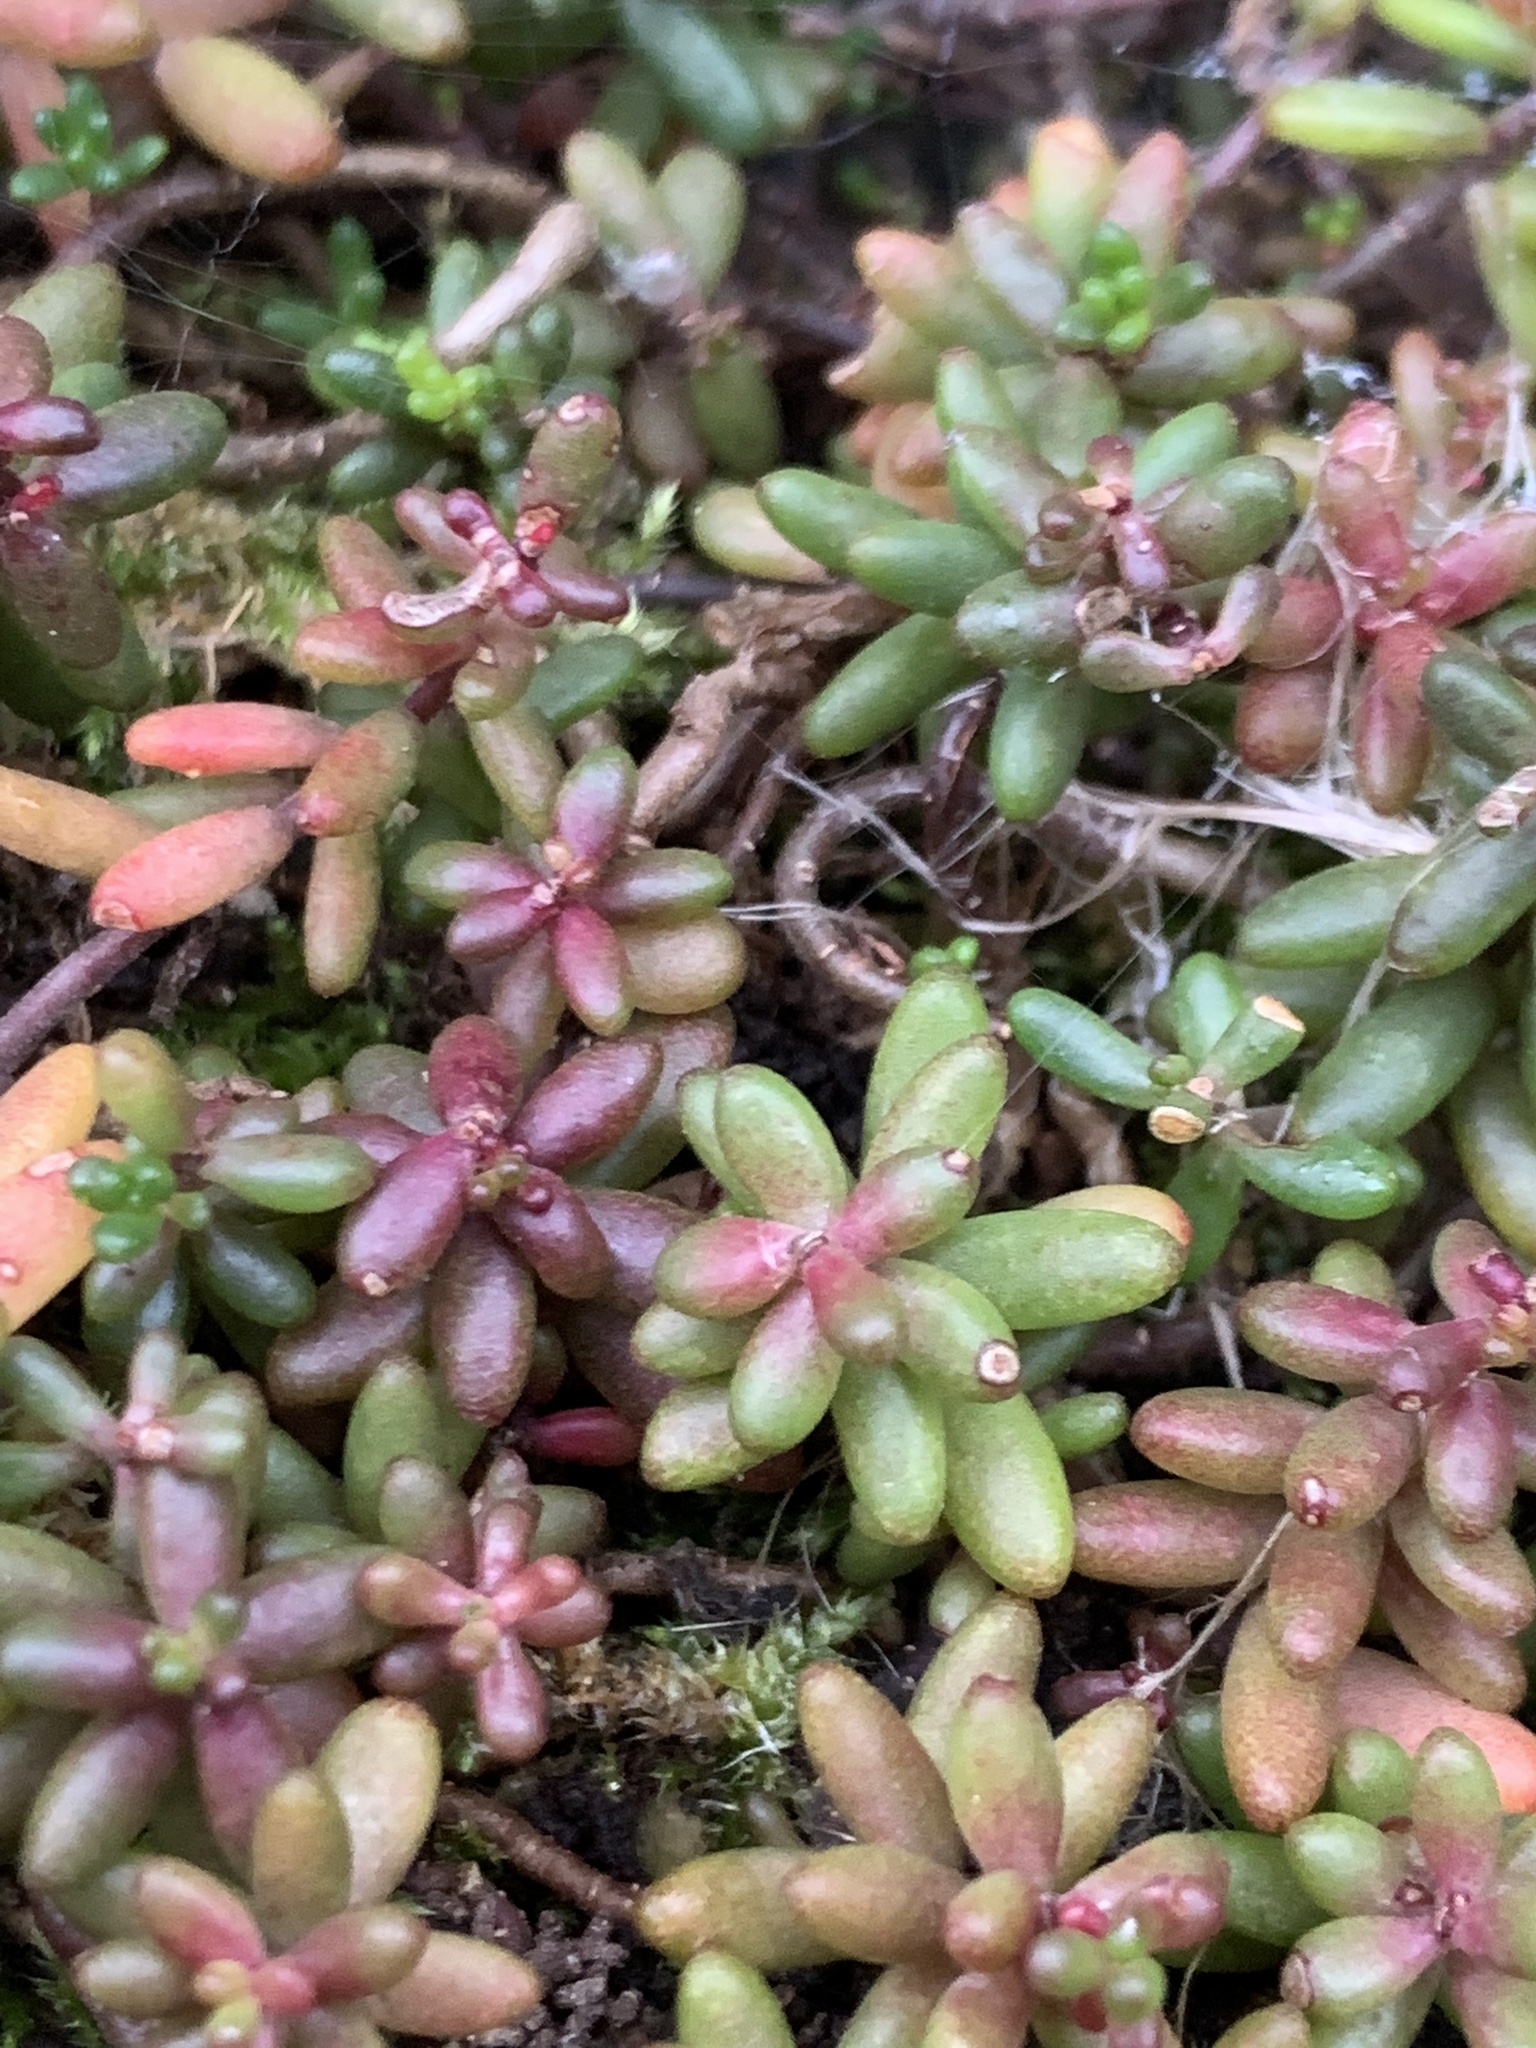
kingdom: Plantae
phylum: Tracheophyta
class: Magnoliopsida
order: Saxifragales
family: Crassulaceae
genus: Sedum
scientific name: Sedum album
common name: White stonecrop
